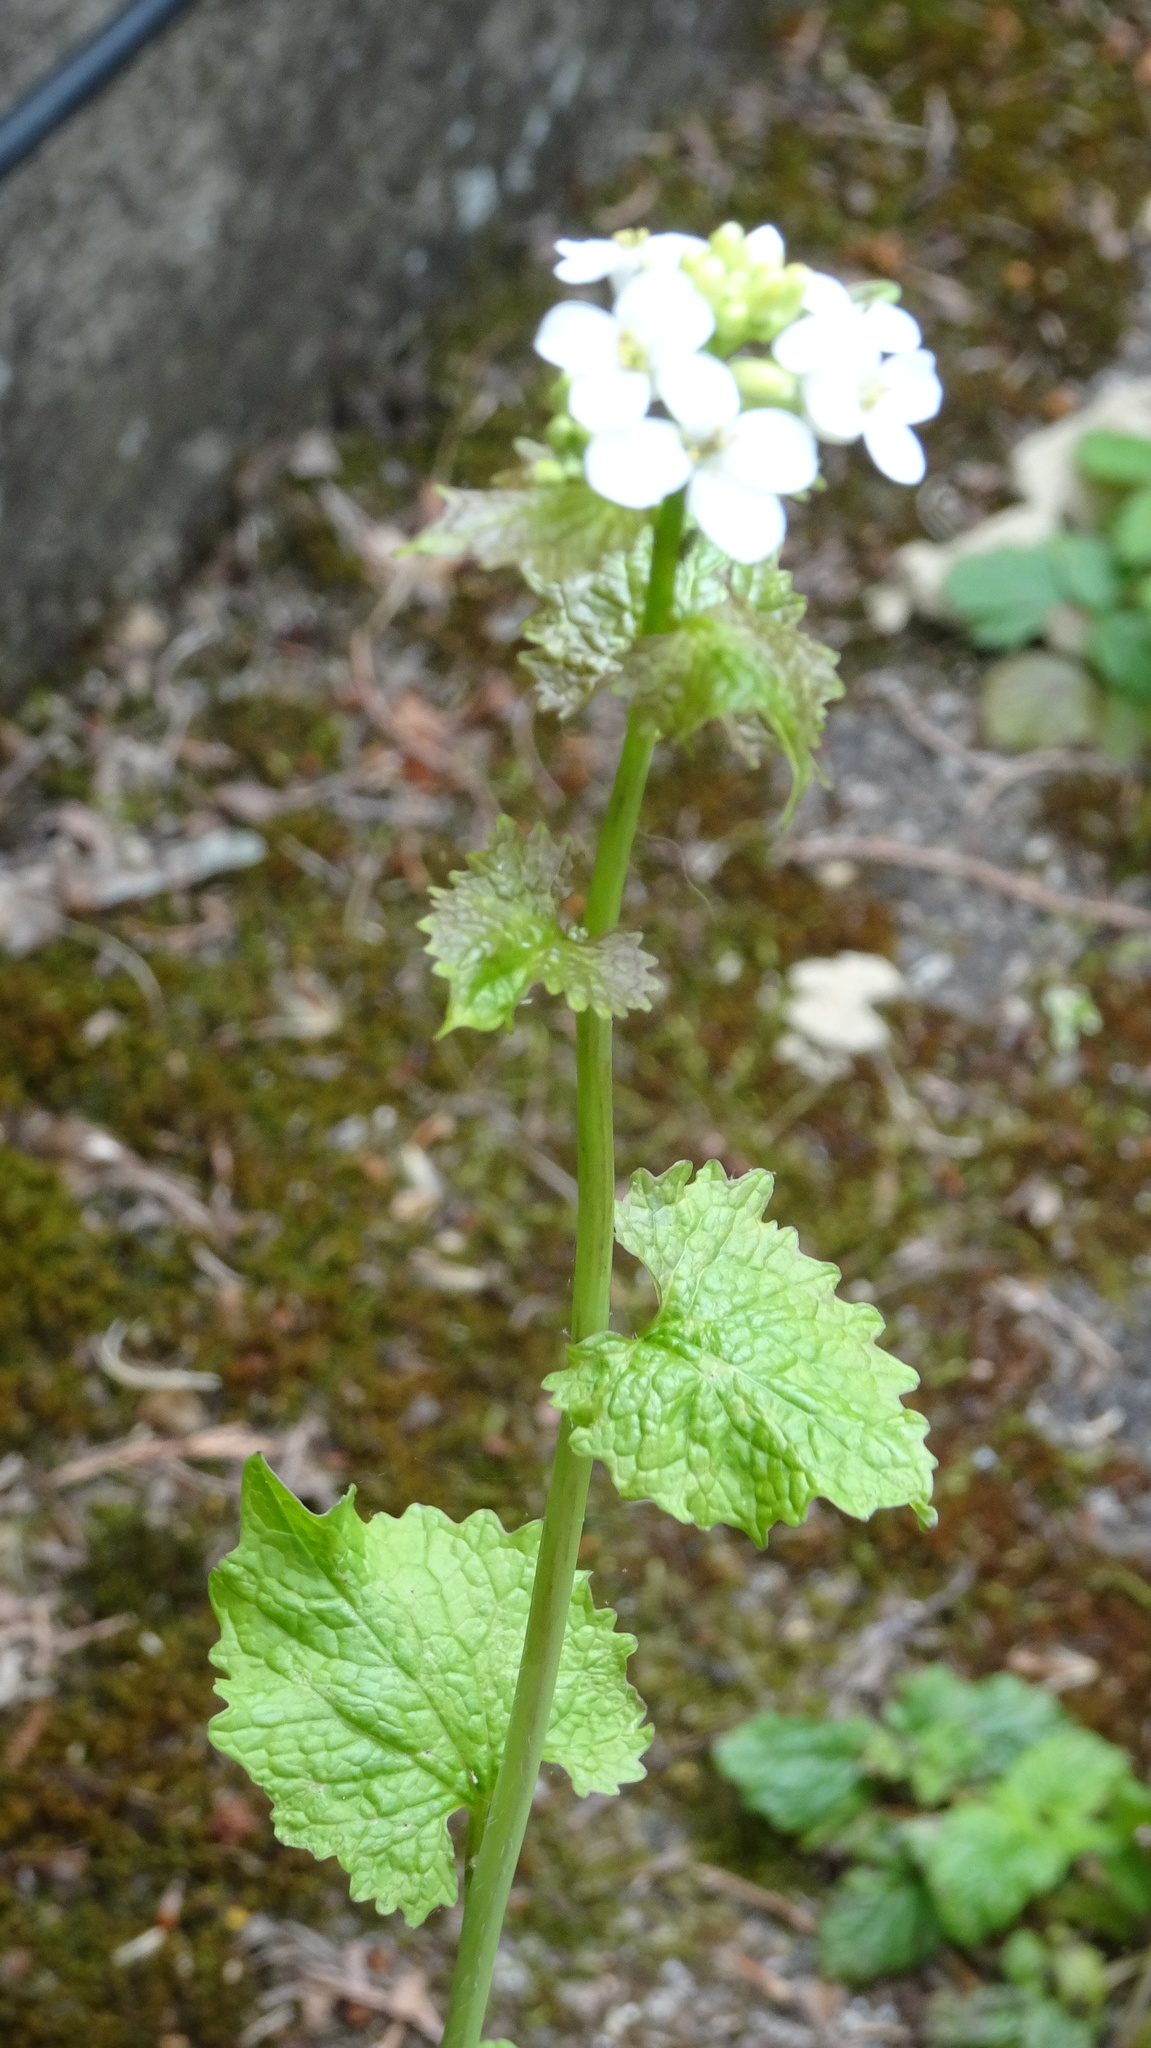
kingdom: Plantae
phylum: Tracheophyta
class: Magnoliopsida
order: Brassicales
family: Brassicaceae
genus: Alliaria
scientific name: Alliaria petiolata
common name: Garlic mustard
